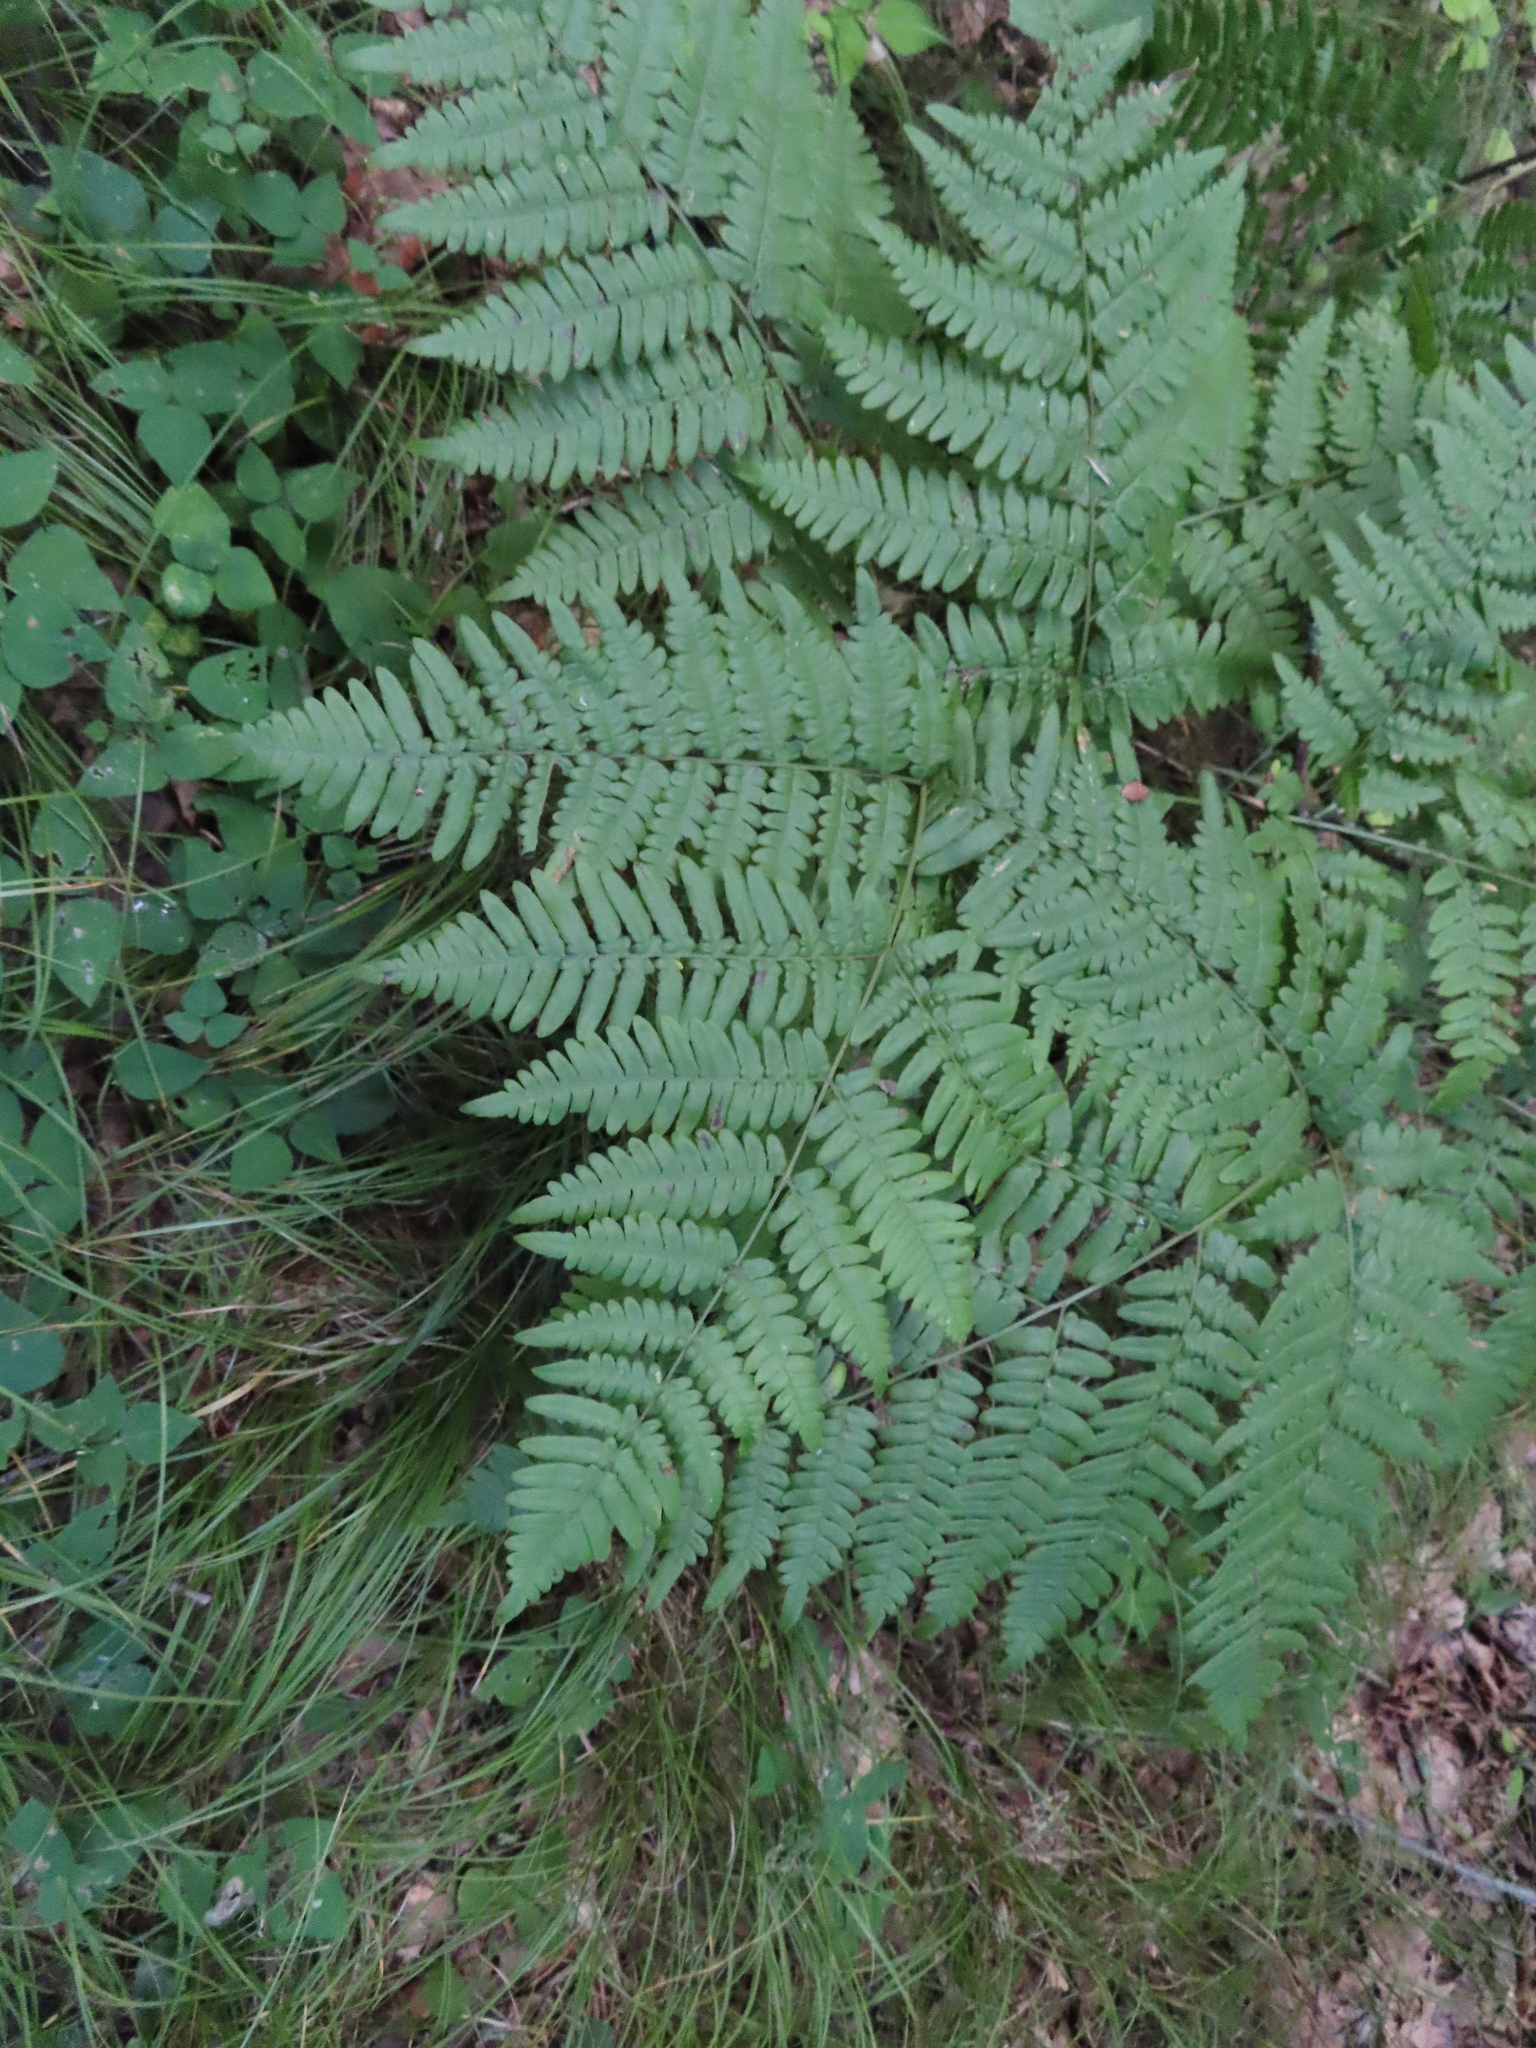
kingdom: Plantae
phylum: Tracheophyta
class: Polypodiopsida
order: Polypodiales
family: Dennstaedtiaceae
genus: Pteridium
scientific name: Pteridium aquilinum
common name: Bracken
